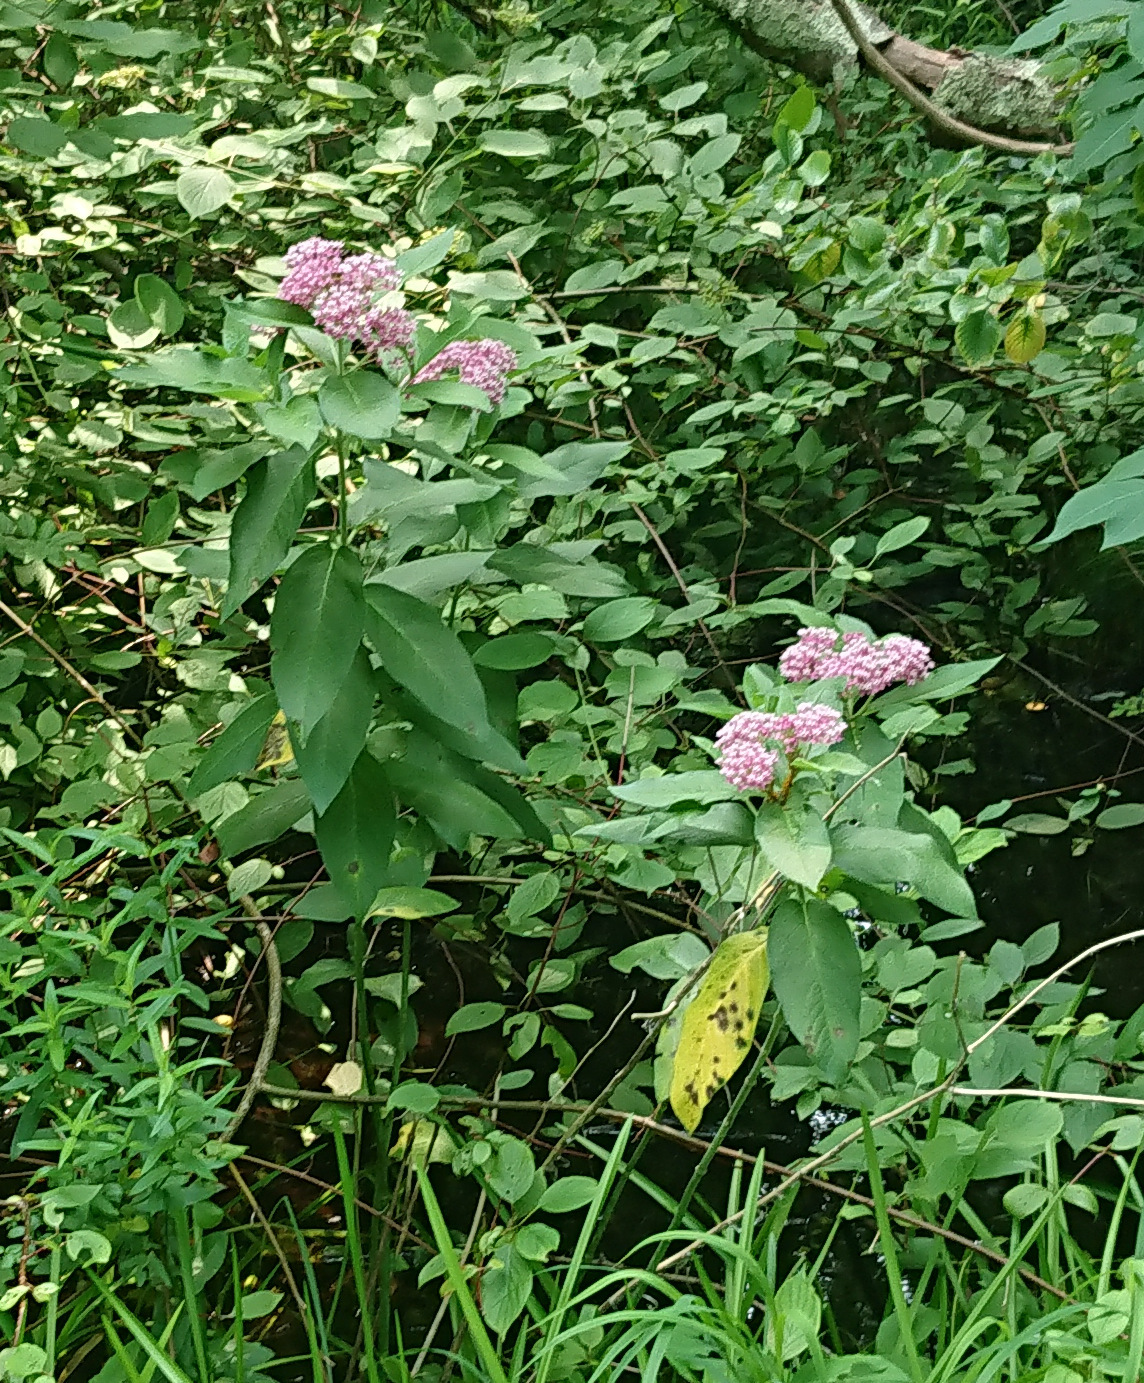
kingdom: Plantae
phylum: Tracheophyta
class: Magnoliopsida
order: Gentianales
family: Apocynaceae
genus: Asclepias
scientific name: Asclepias incarnata
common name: Swamp milkweed
